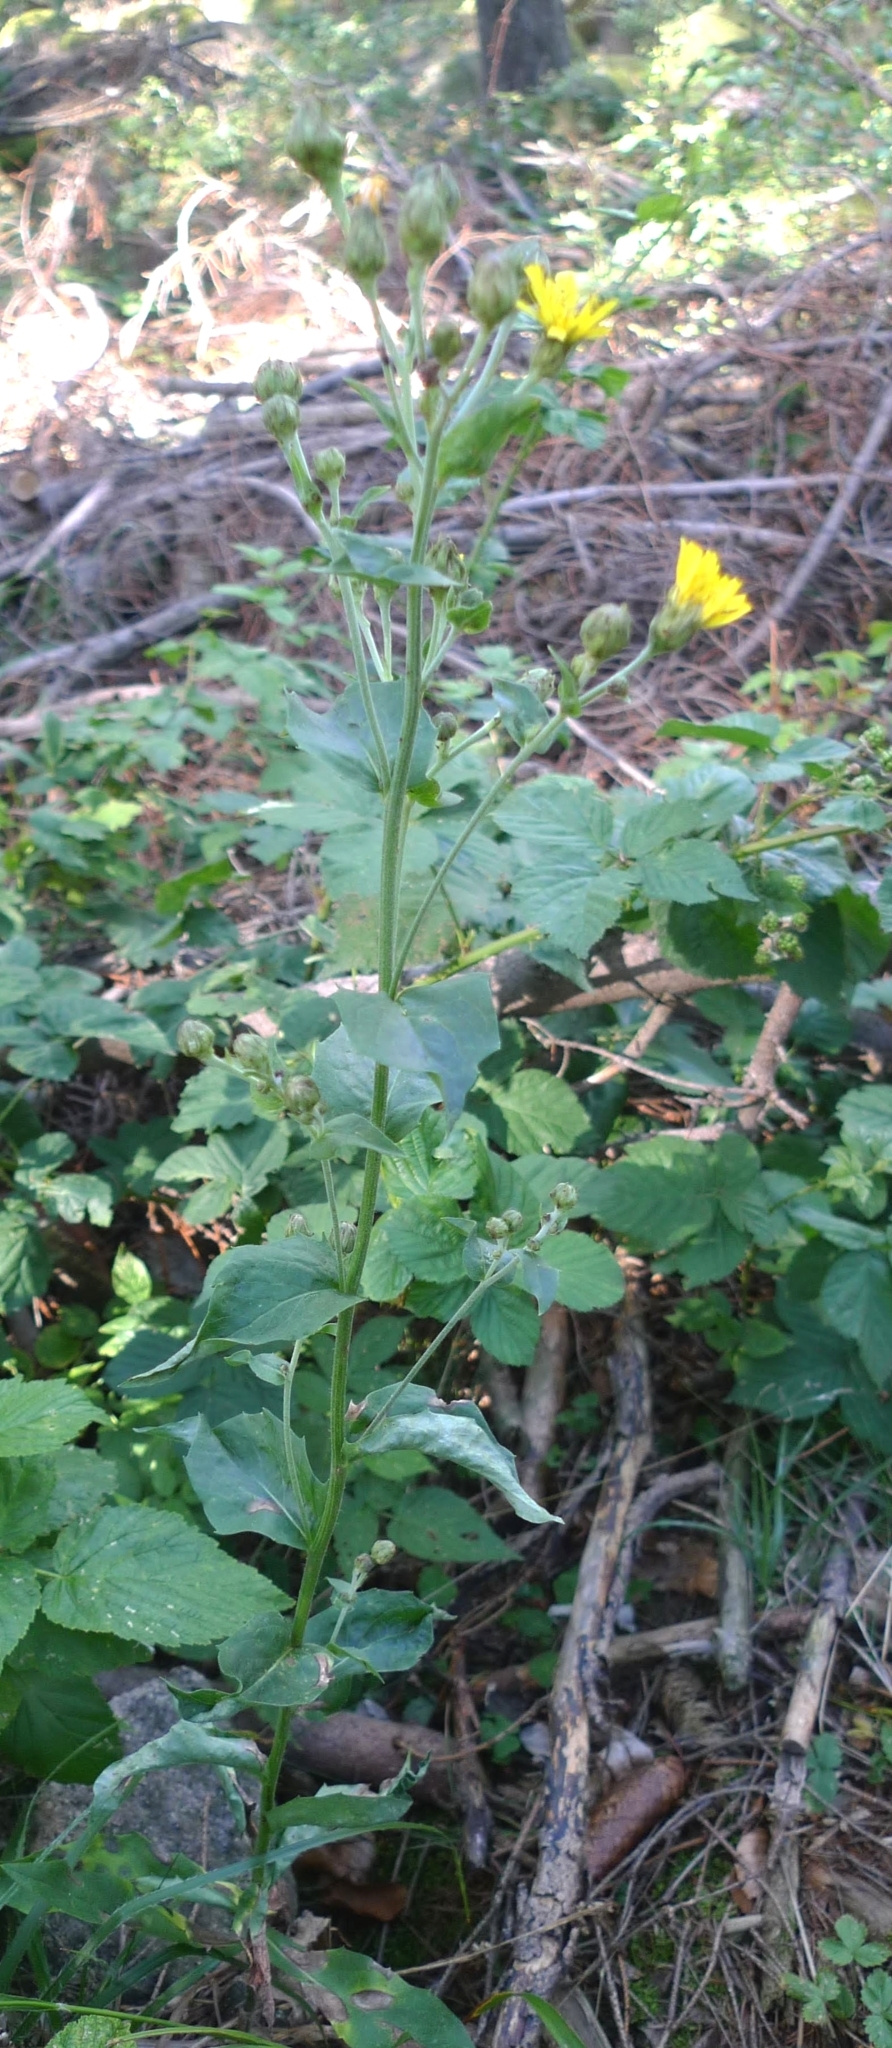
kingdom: Plantae
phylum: Tracheophyta
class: Magnoliopsida
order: Asterales
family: Asteraceae
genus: Hieracium
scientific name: Hieracium sabaudum
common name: New england hawkweed
